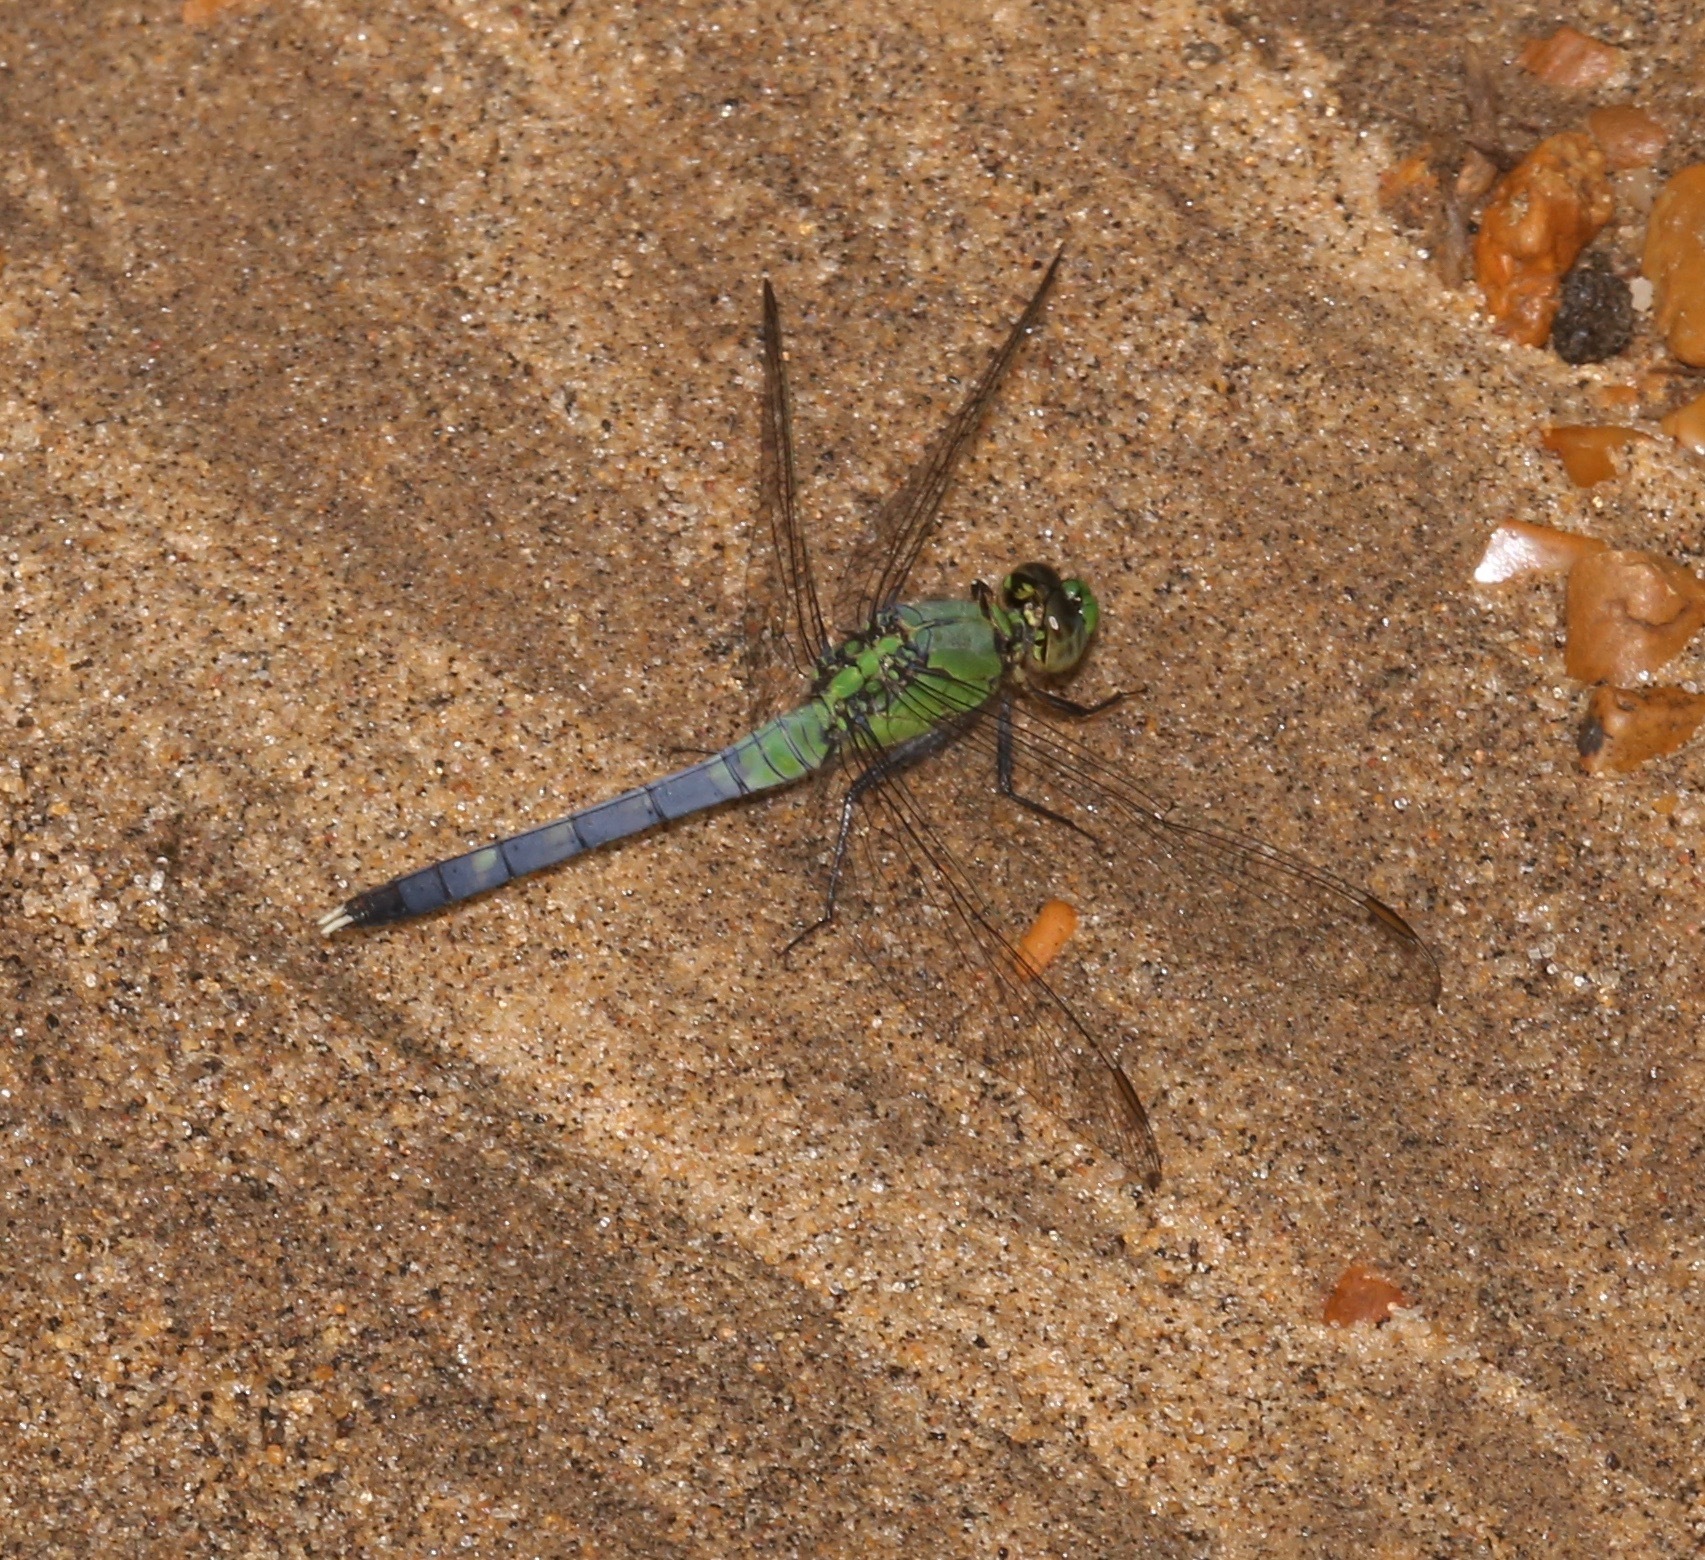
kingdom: Animalia
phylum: Arthropoda
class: Insecta
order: Odonata
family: Libellulidae
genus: Erythemis
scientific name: Erythemis simplicicollis
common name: Eastern pondhawk
